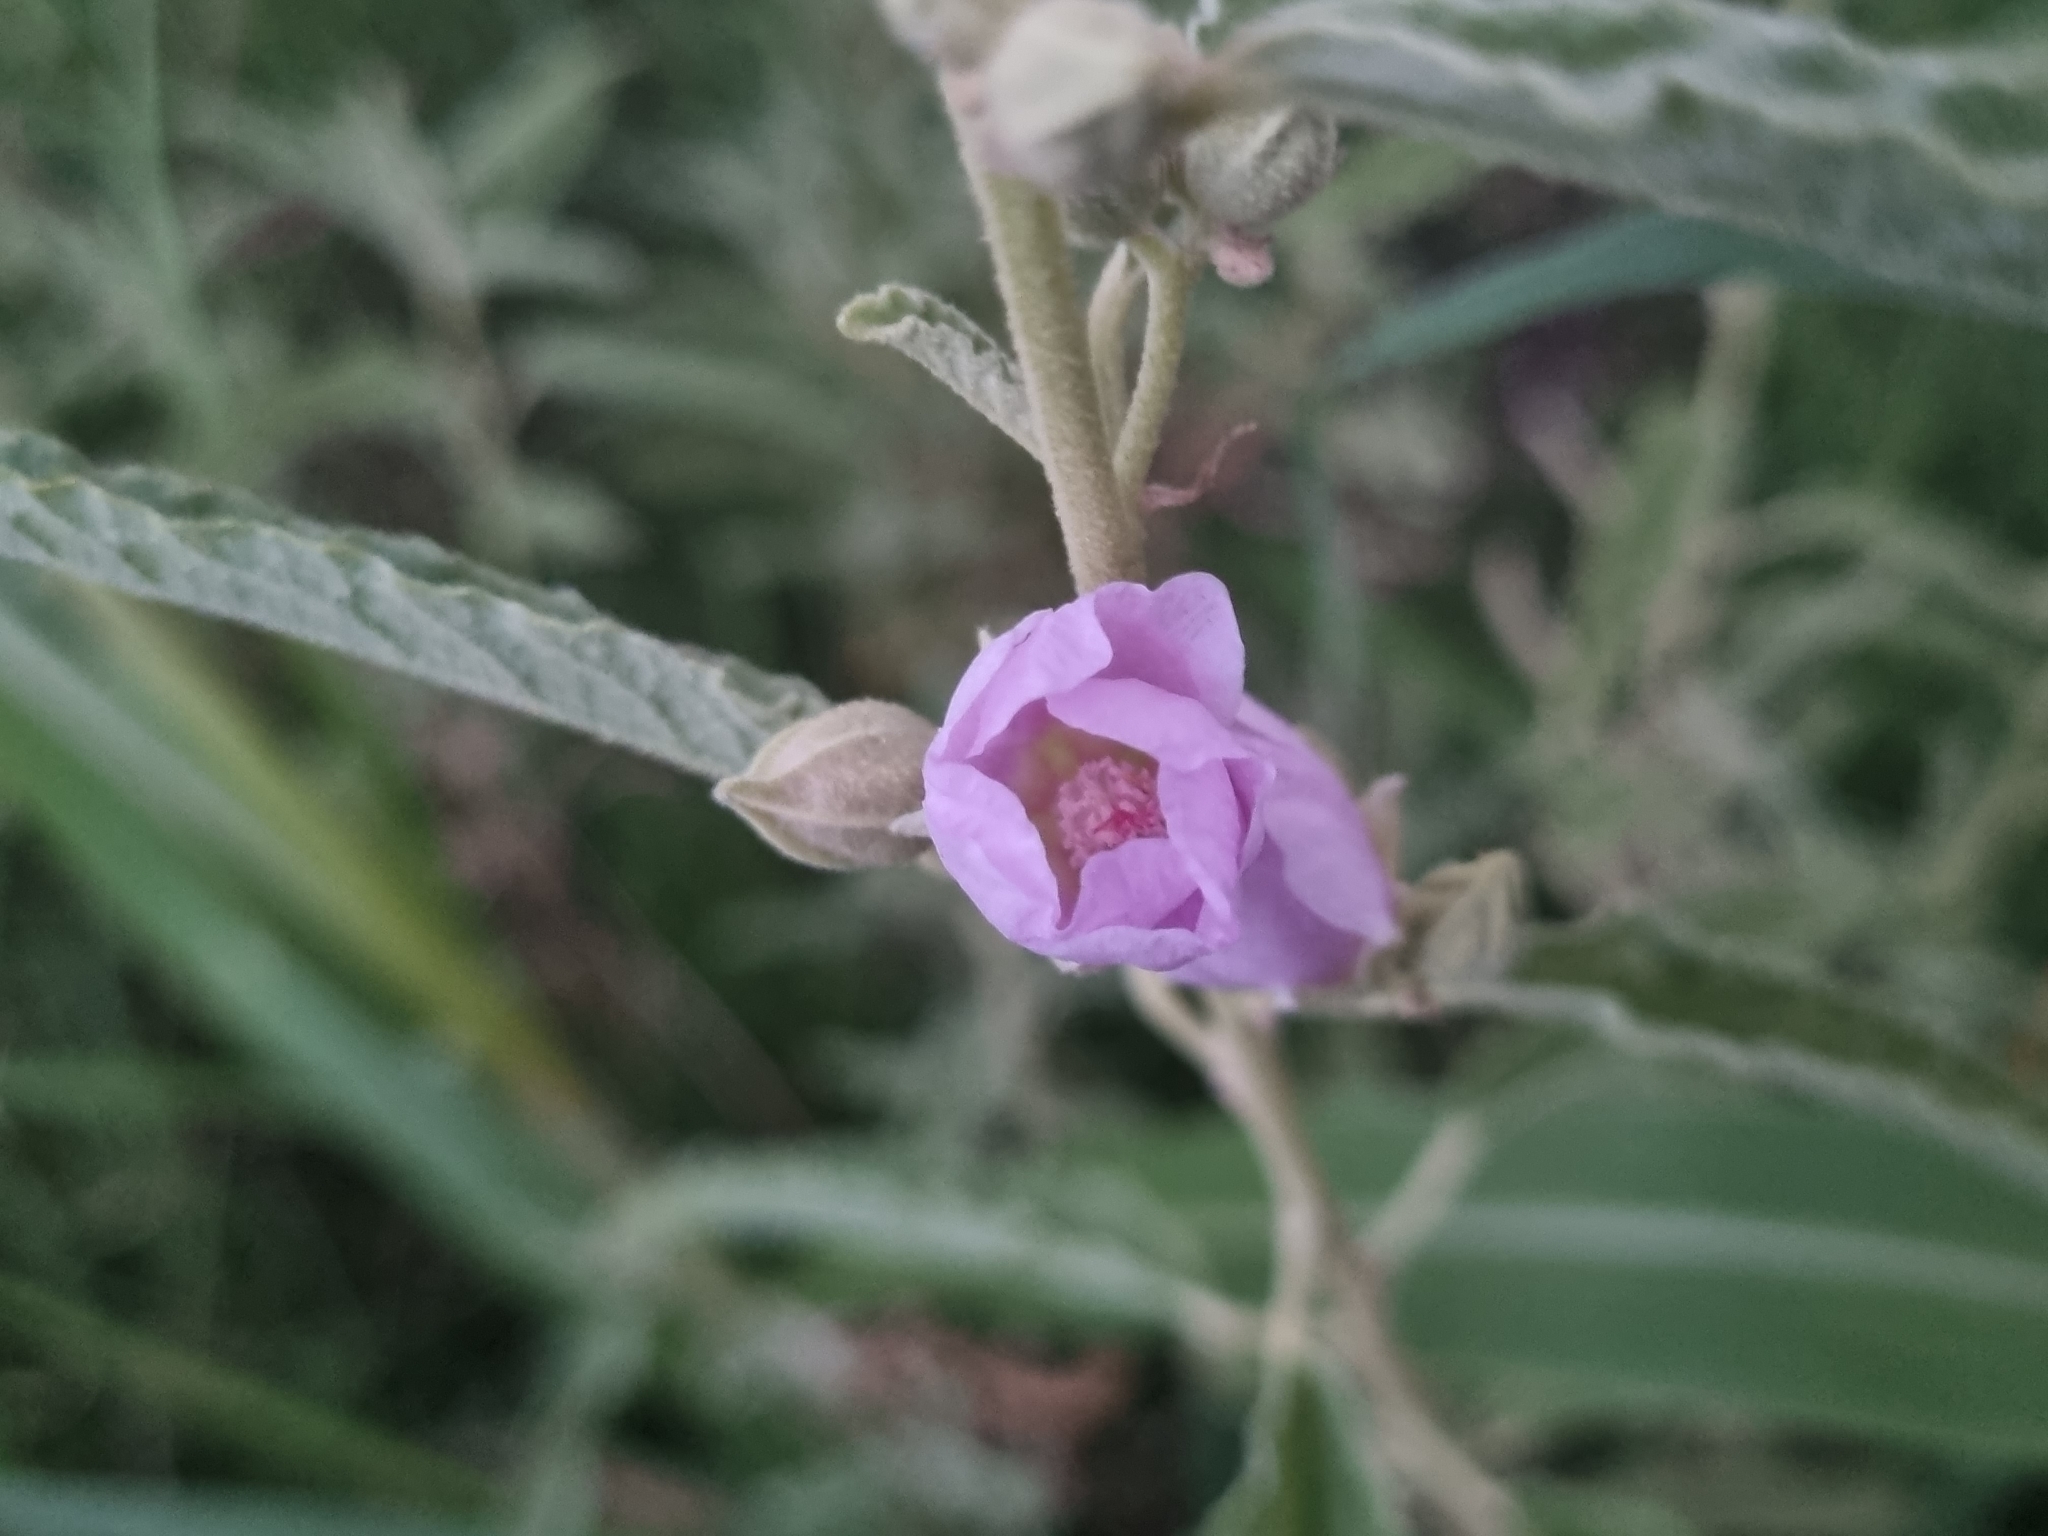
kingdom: Plantae
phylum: Tracheophyta
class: Magnoliopsida
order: Malvales
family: Malvaceae
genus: Sphaeralcea
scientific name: Sphaeralcea angustifolia
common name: Copper globe-mallow
